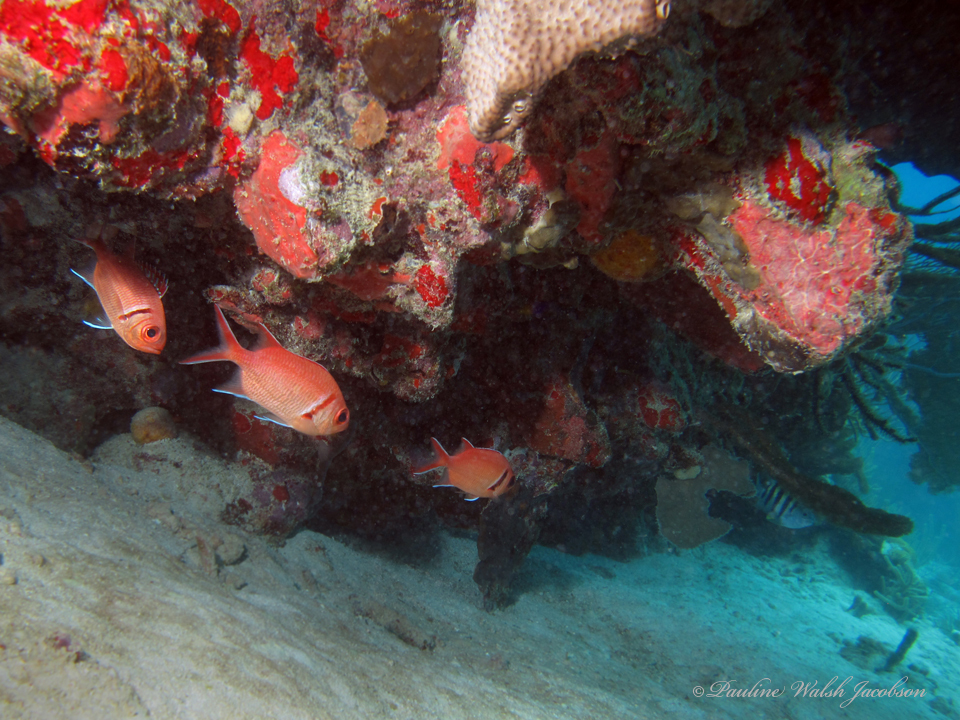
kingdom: Animalia
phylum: Chordata
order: Beryciformes
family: Holocentridae
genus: Myripristis
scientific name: Myripristis jacobus
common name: Blackbar soldierfish
